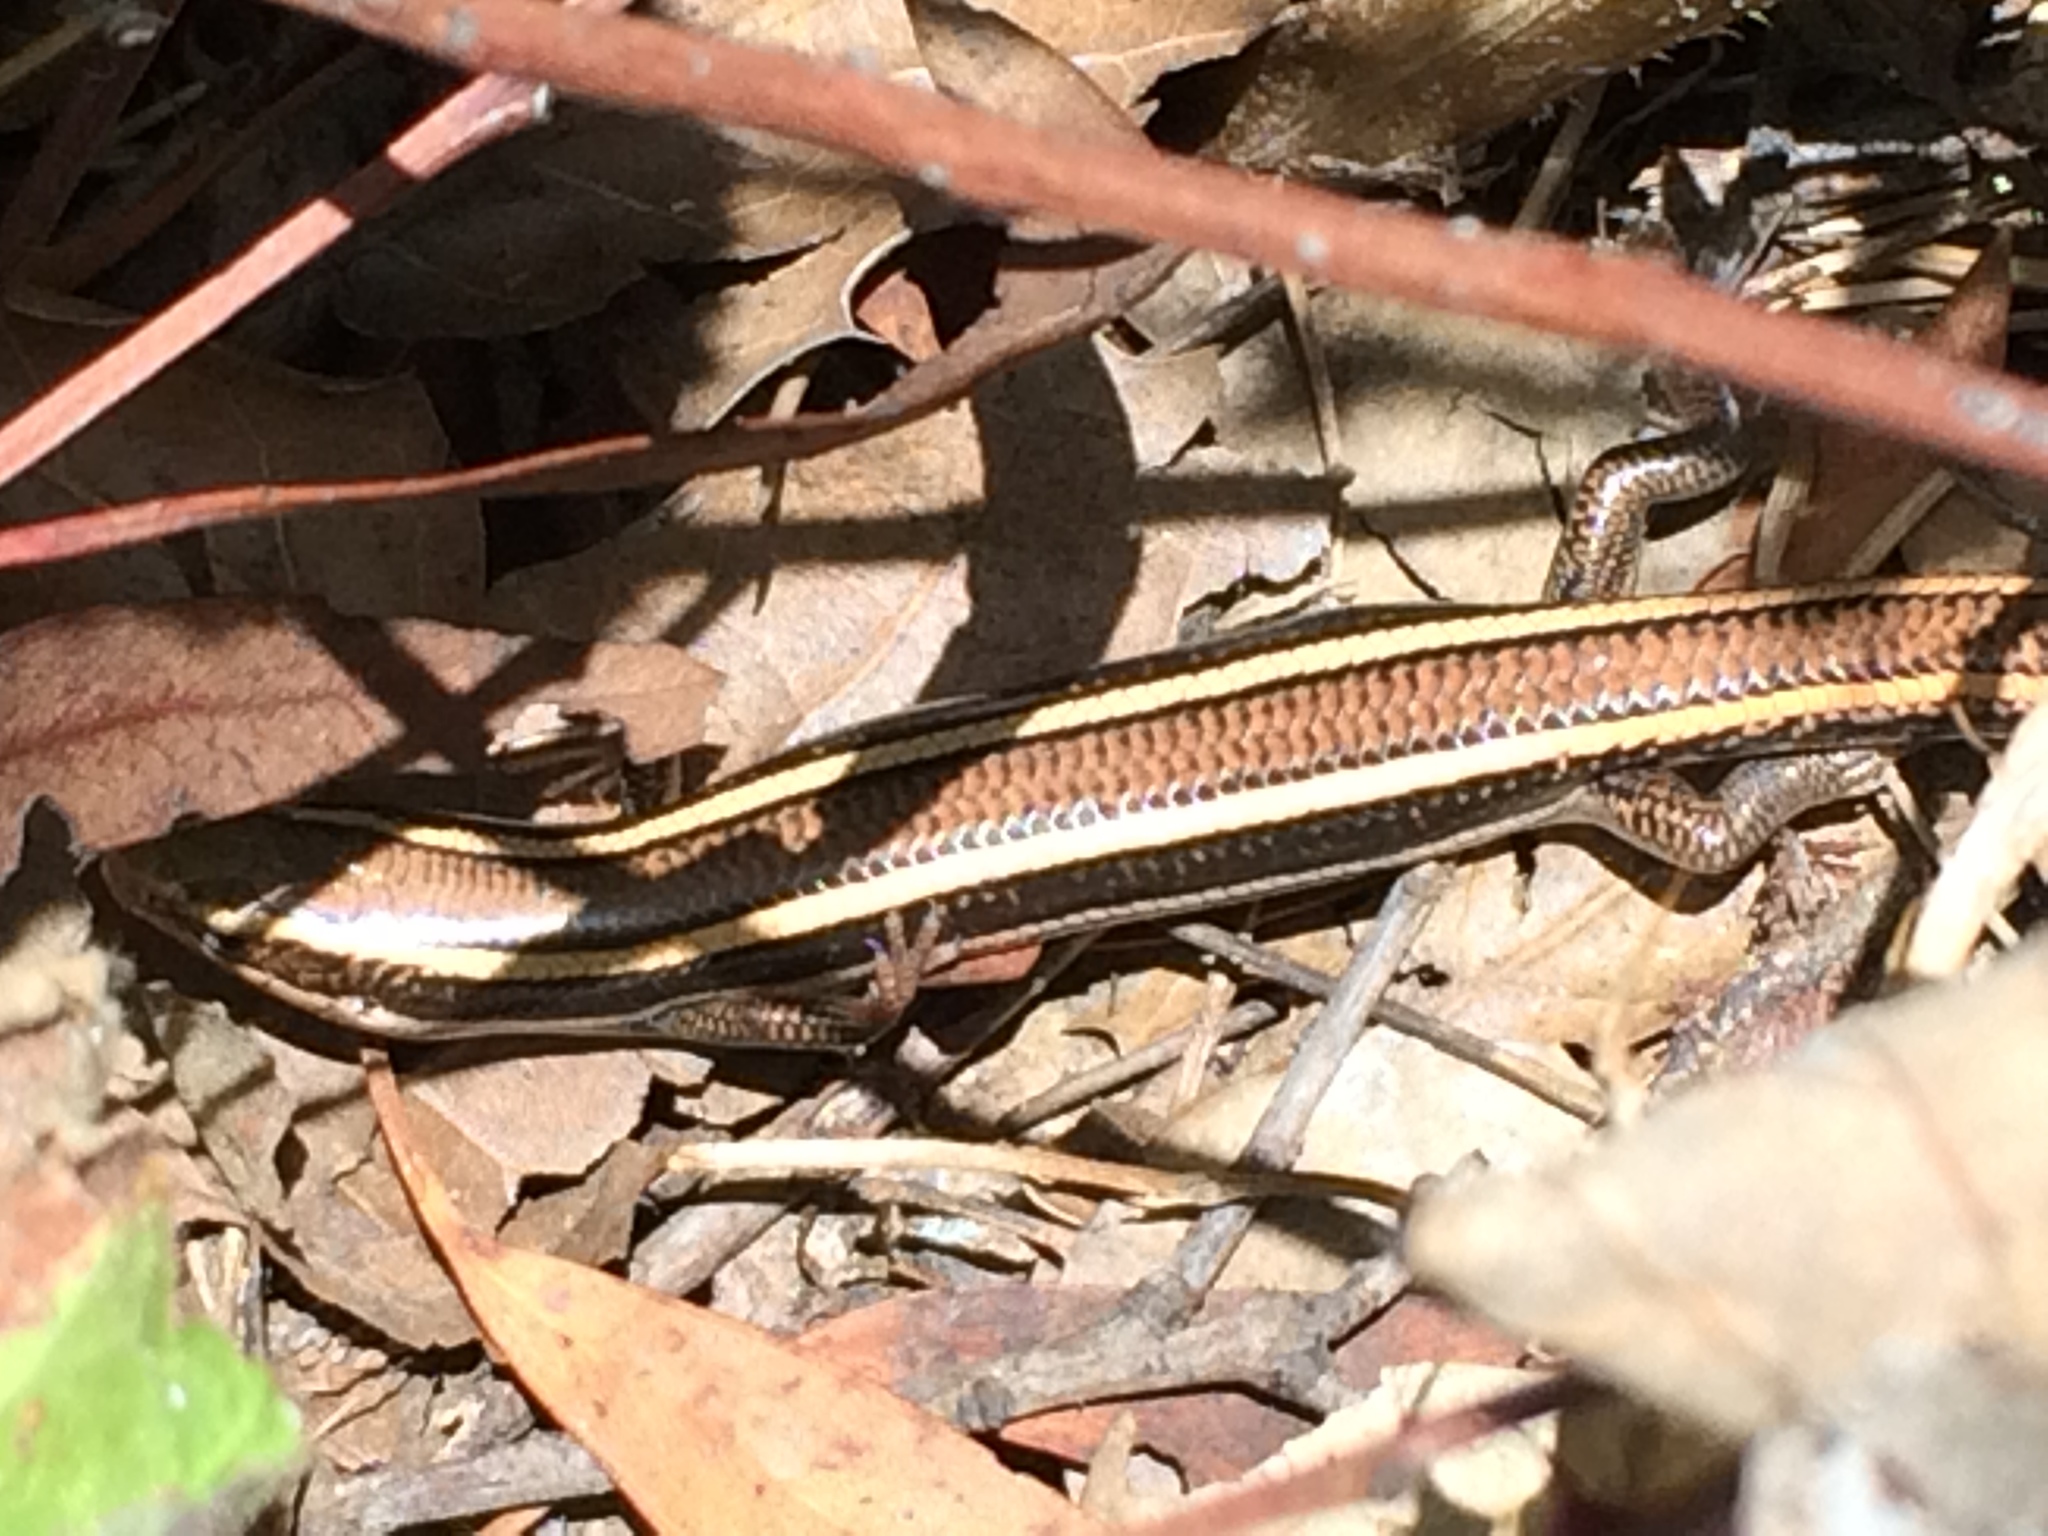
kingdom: Animalia
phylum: Chordata
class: Squamata
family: Scincidae
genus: Plestiodon
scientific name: Plestiodon skiltonianus
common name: Coronado island skink [interparietalis]
